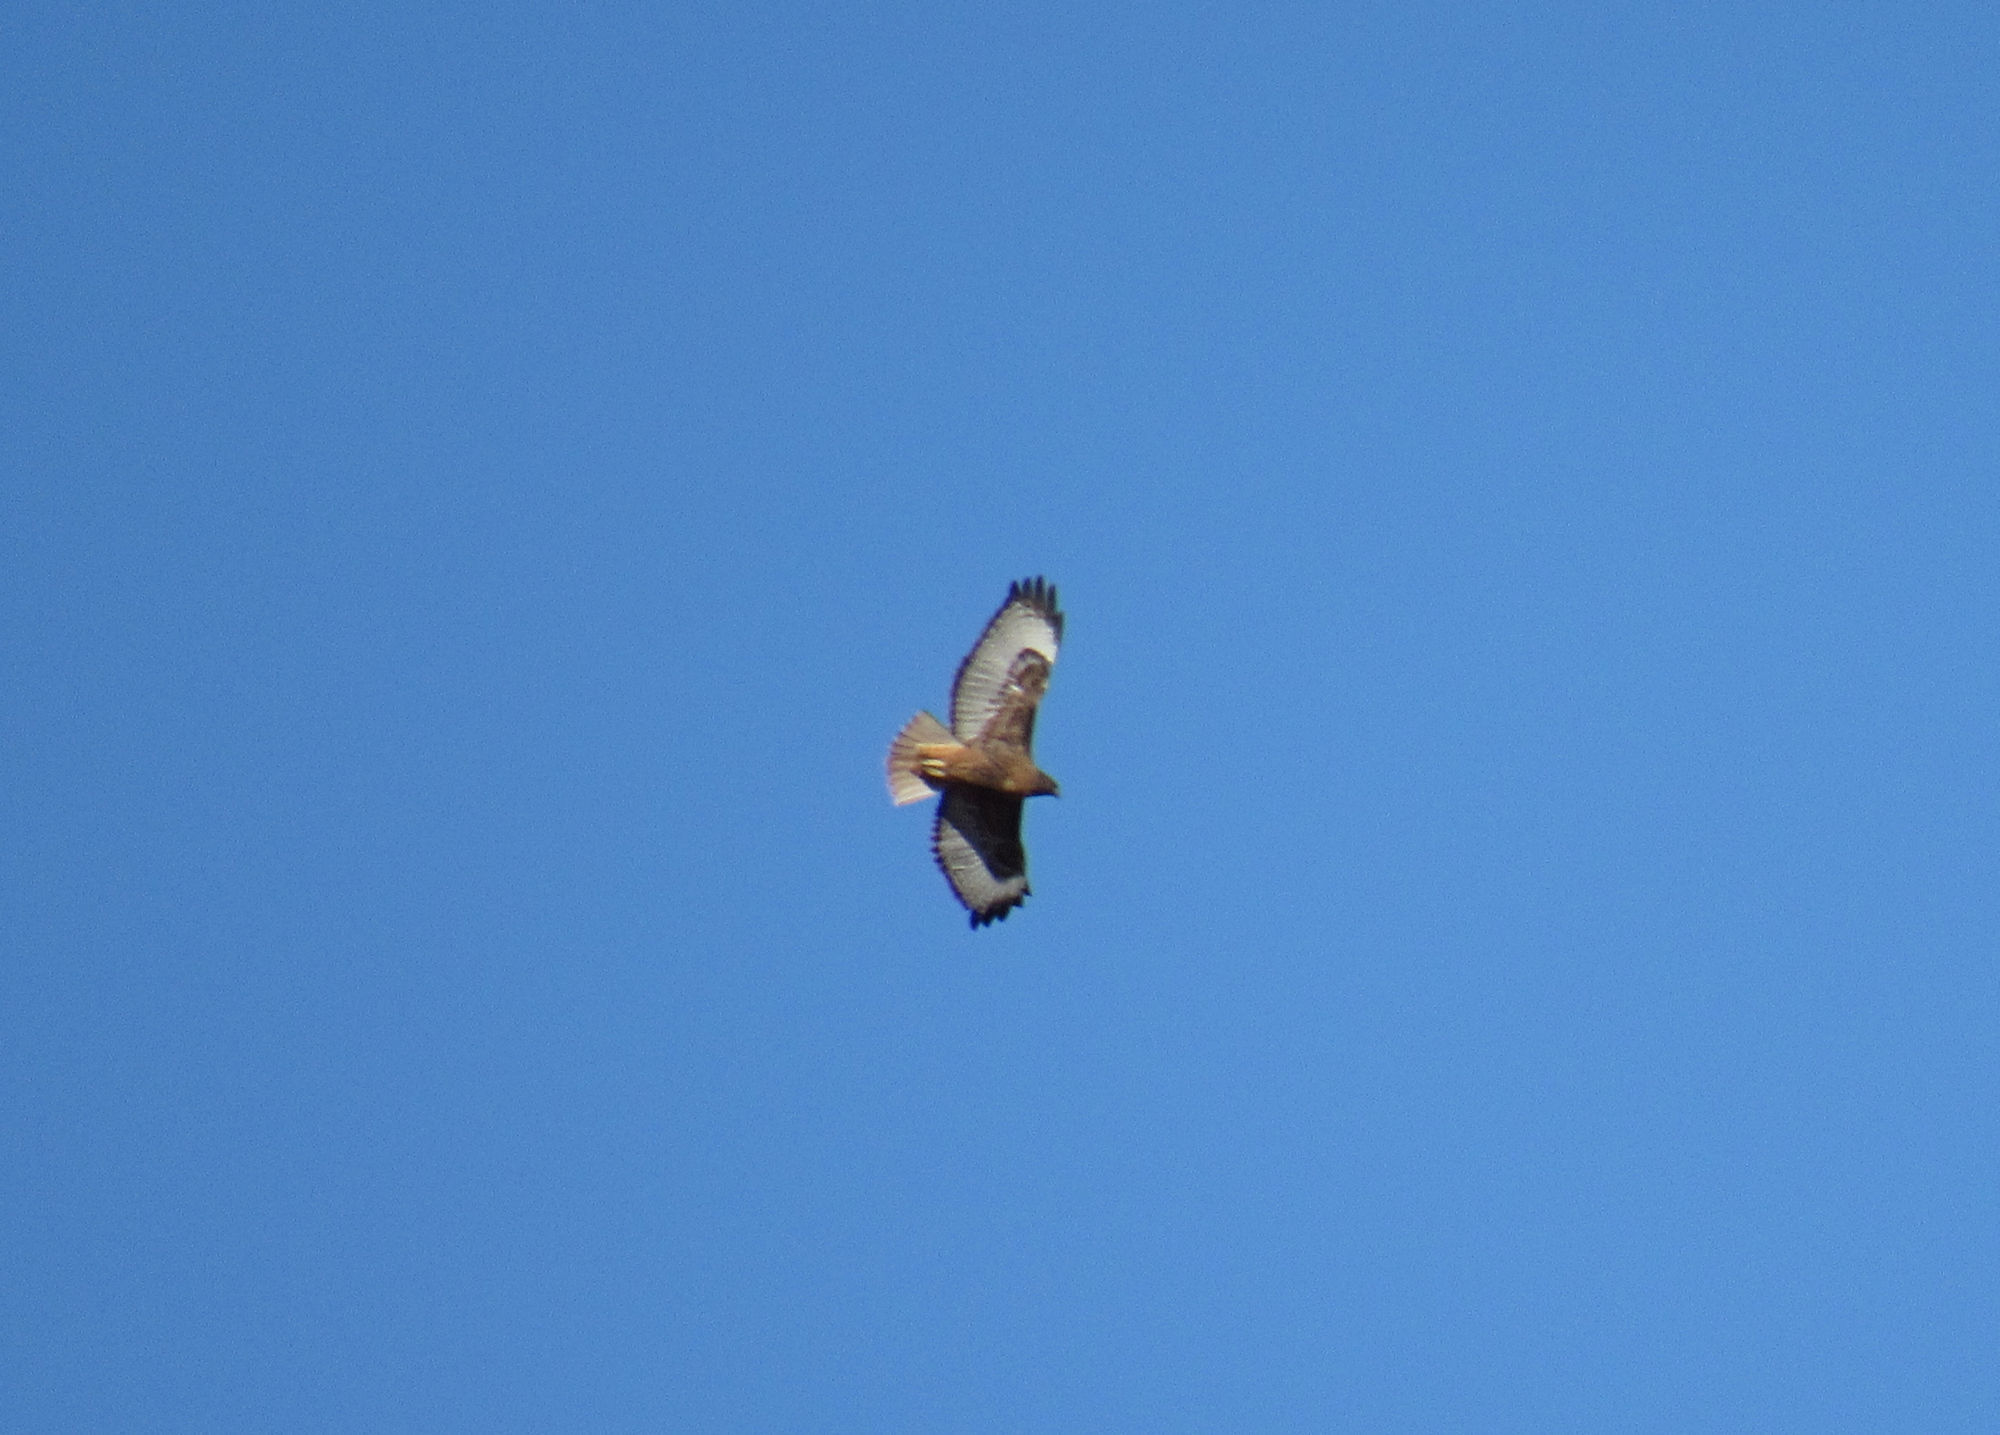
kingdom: Animalia
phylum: Chordata
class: Aves
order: Accipitriformes
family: Accipitridae
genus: Buteo
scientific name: Buteo jamaicensis
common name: Red-tailed hawk
